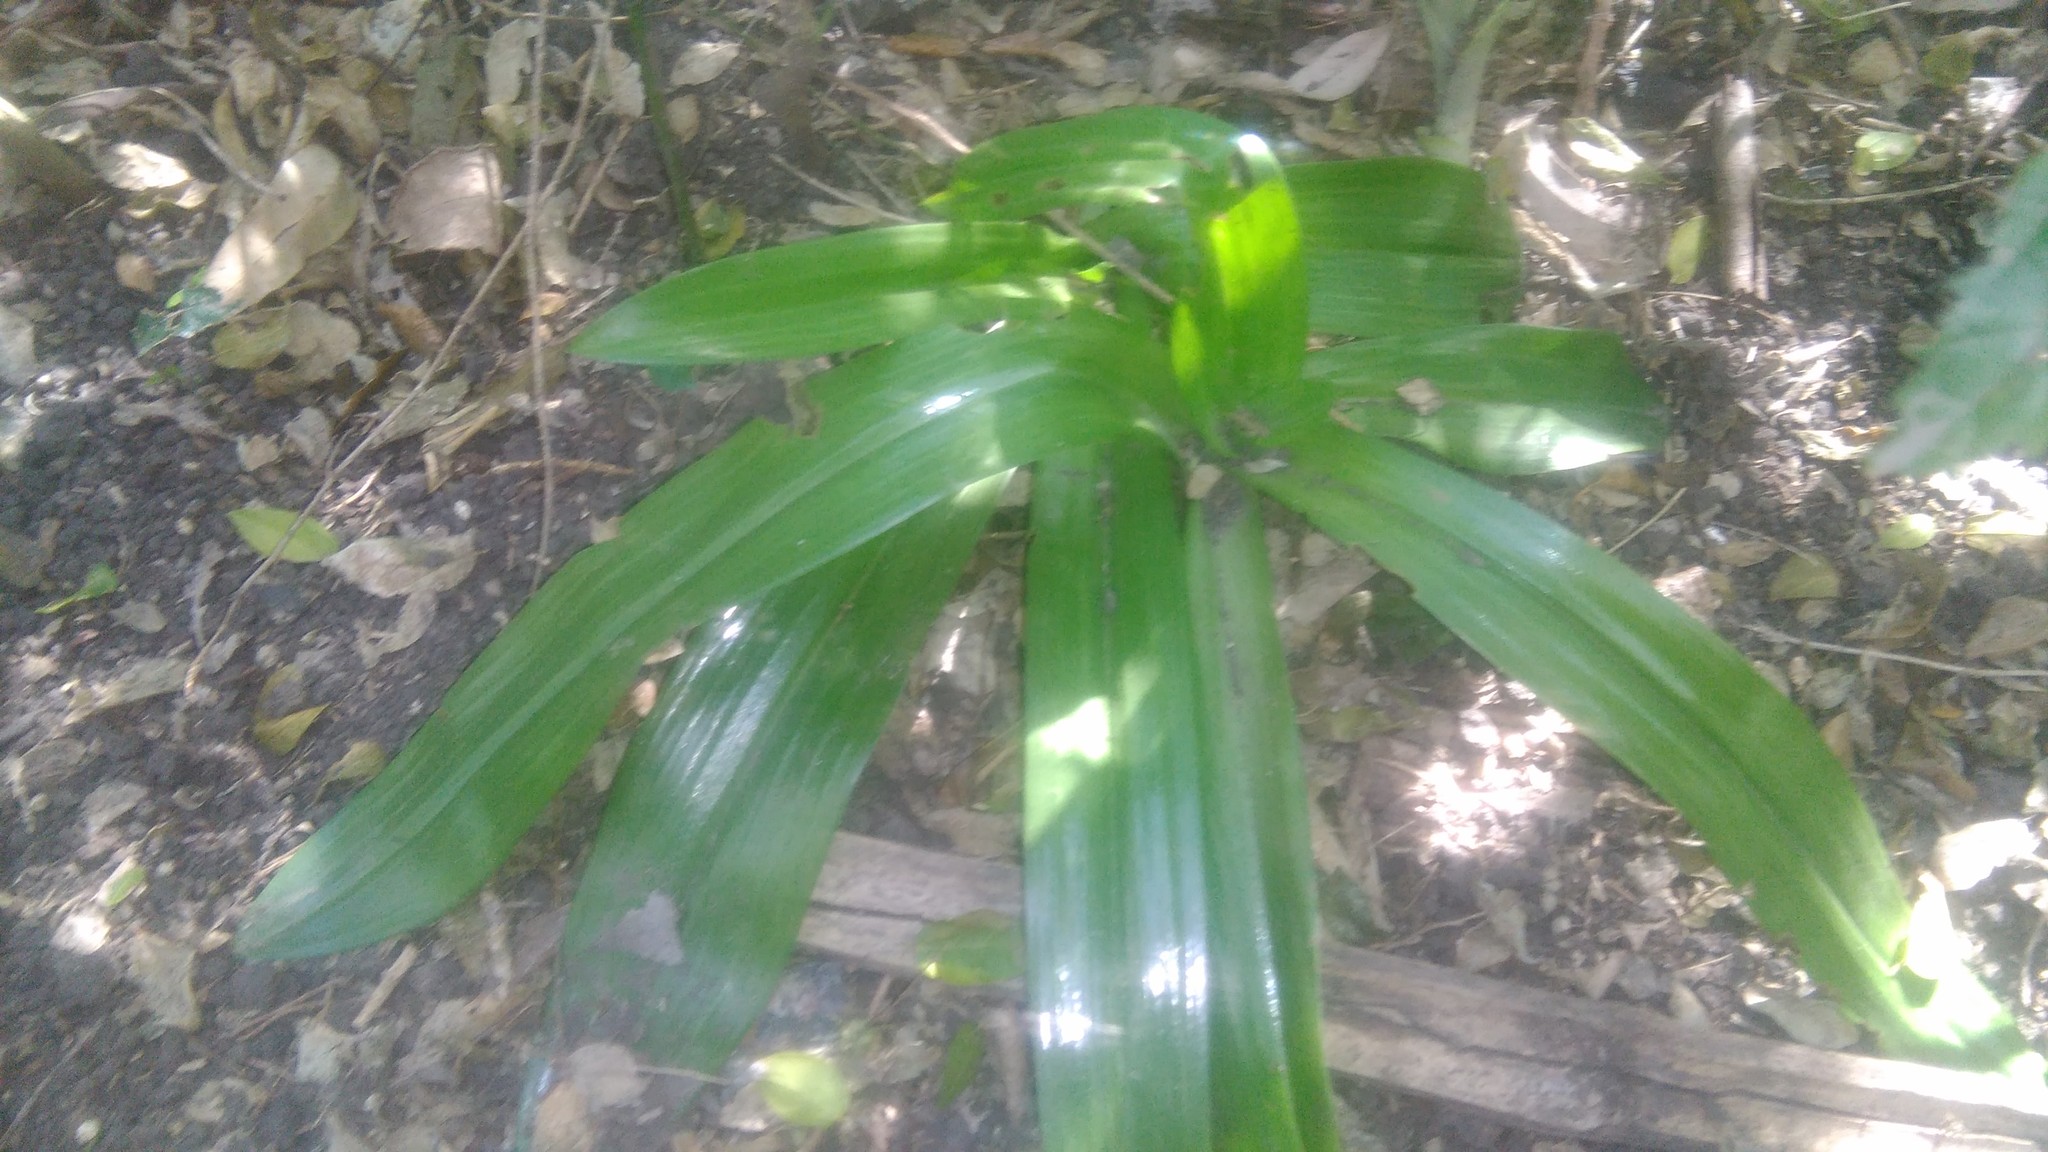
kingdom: Plantae
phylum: Tracheophyta
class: Liliopsida
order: Asparagales
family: Orchidaceae
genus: Chloraea
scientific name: Chloraea membranacea
